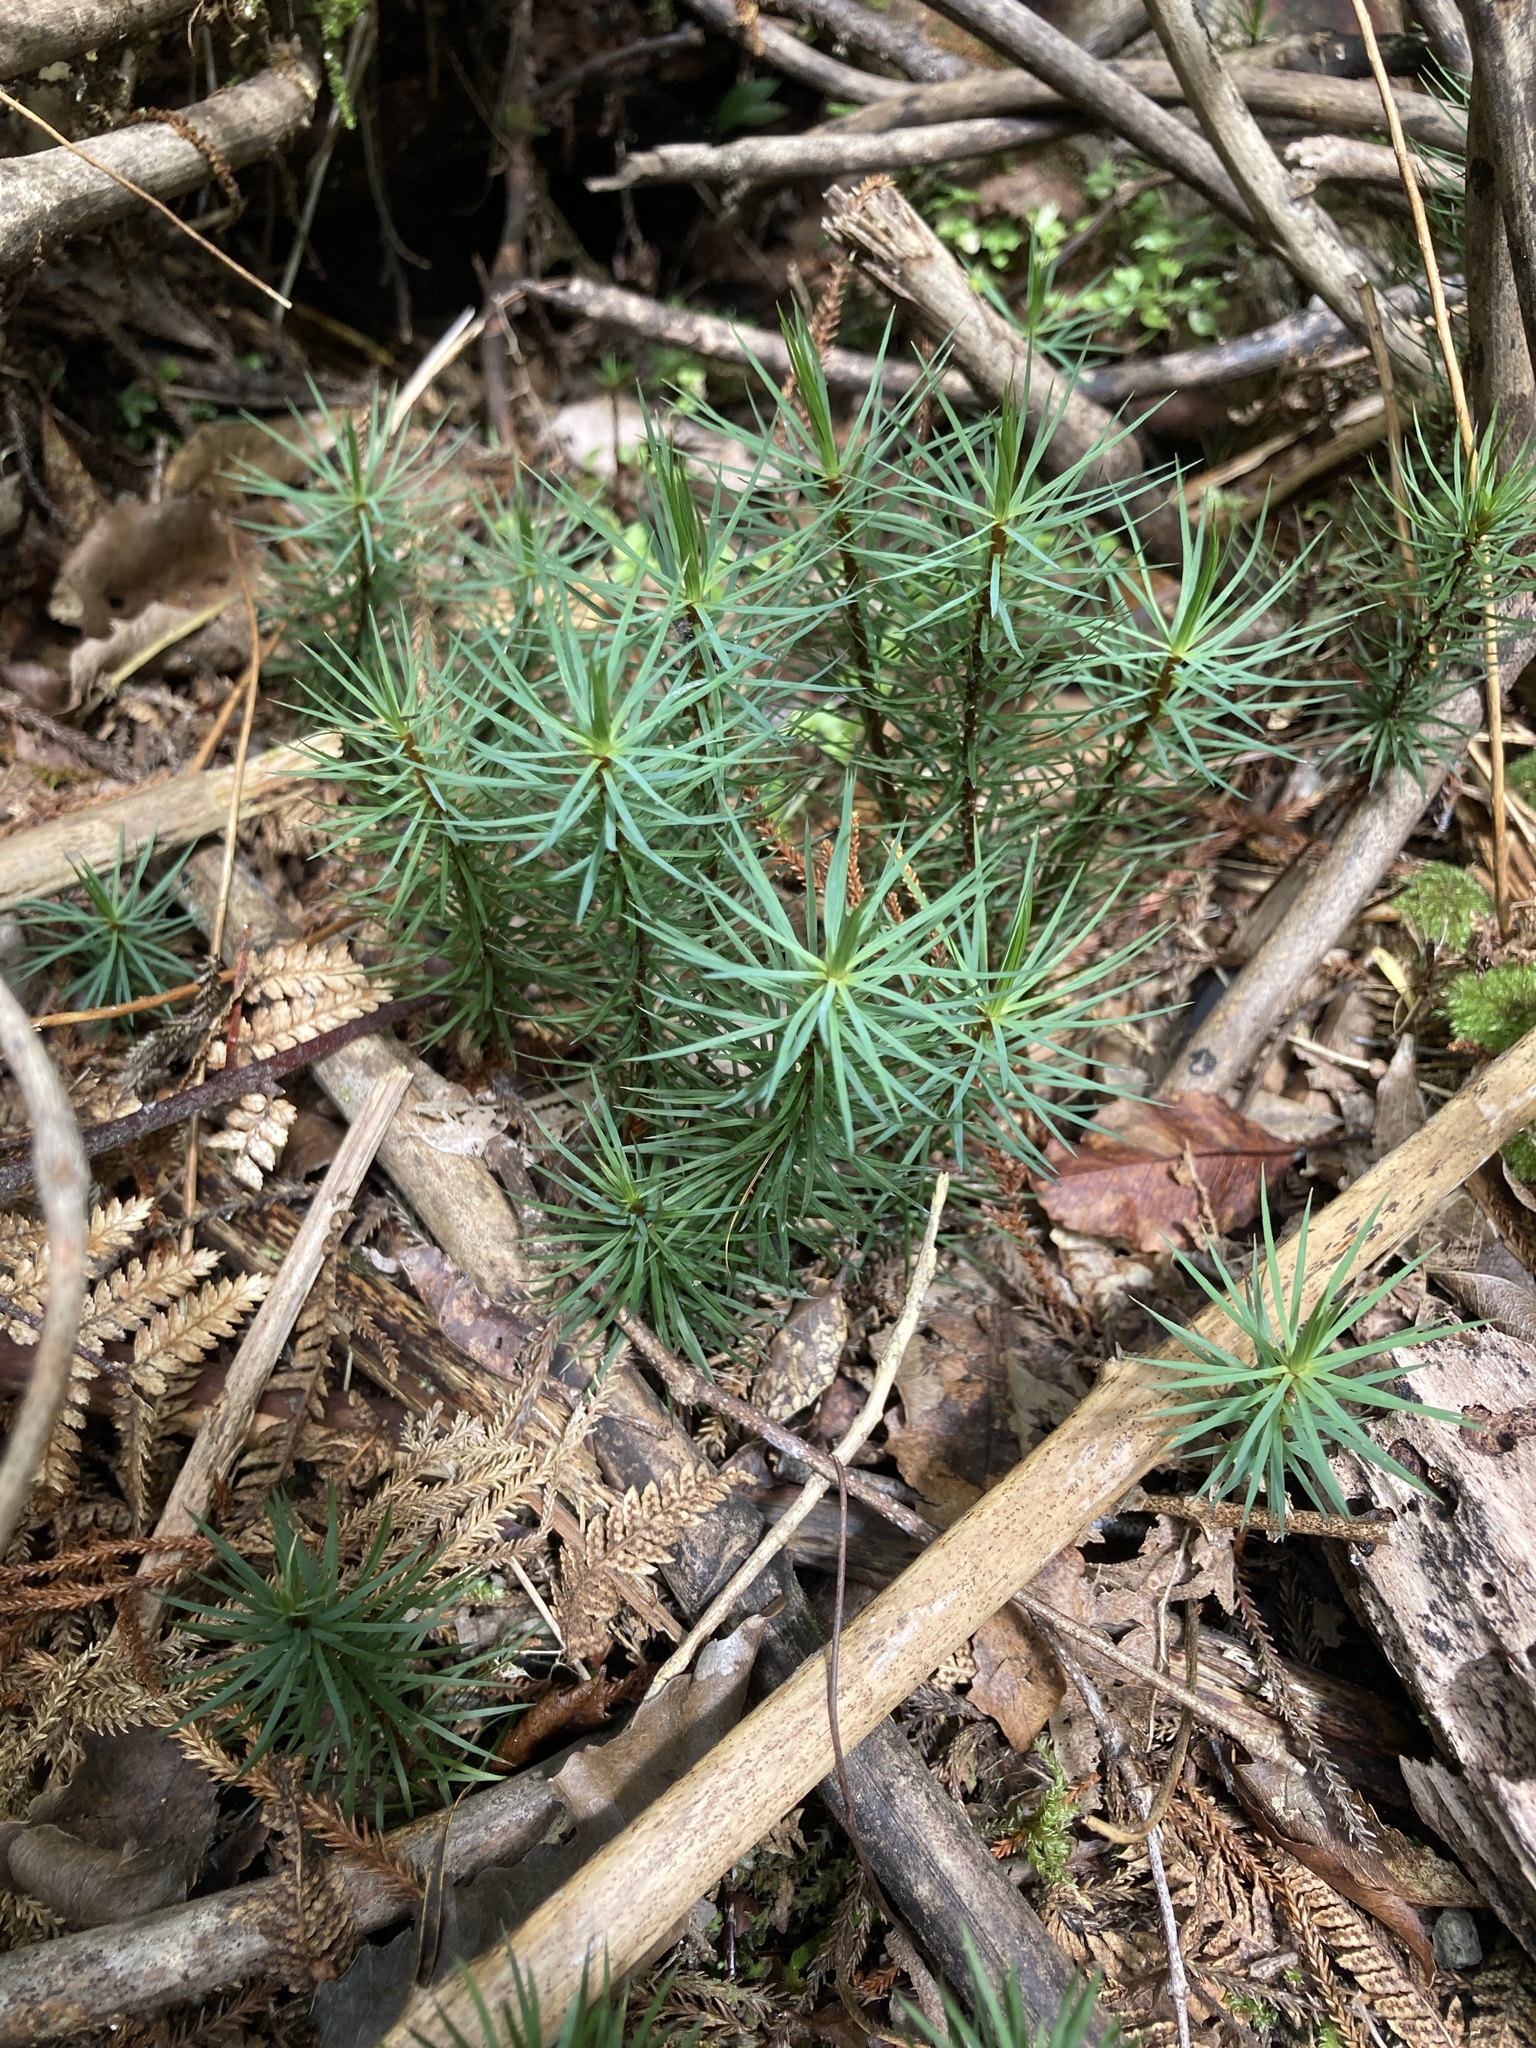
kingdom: Plantae
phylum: Bryophyta
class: Polytrichopsida
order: Polytrichales
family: Polytrichaceae
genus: Dawsonia
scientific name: Dawsonia superba
